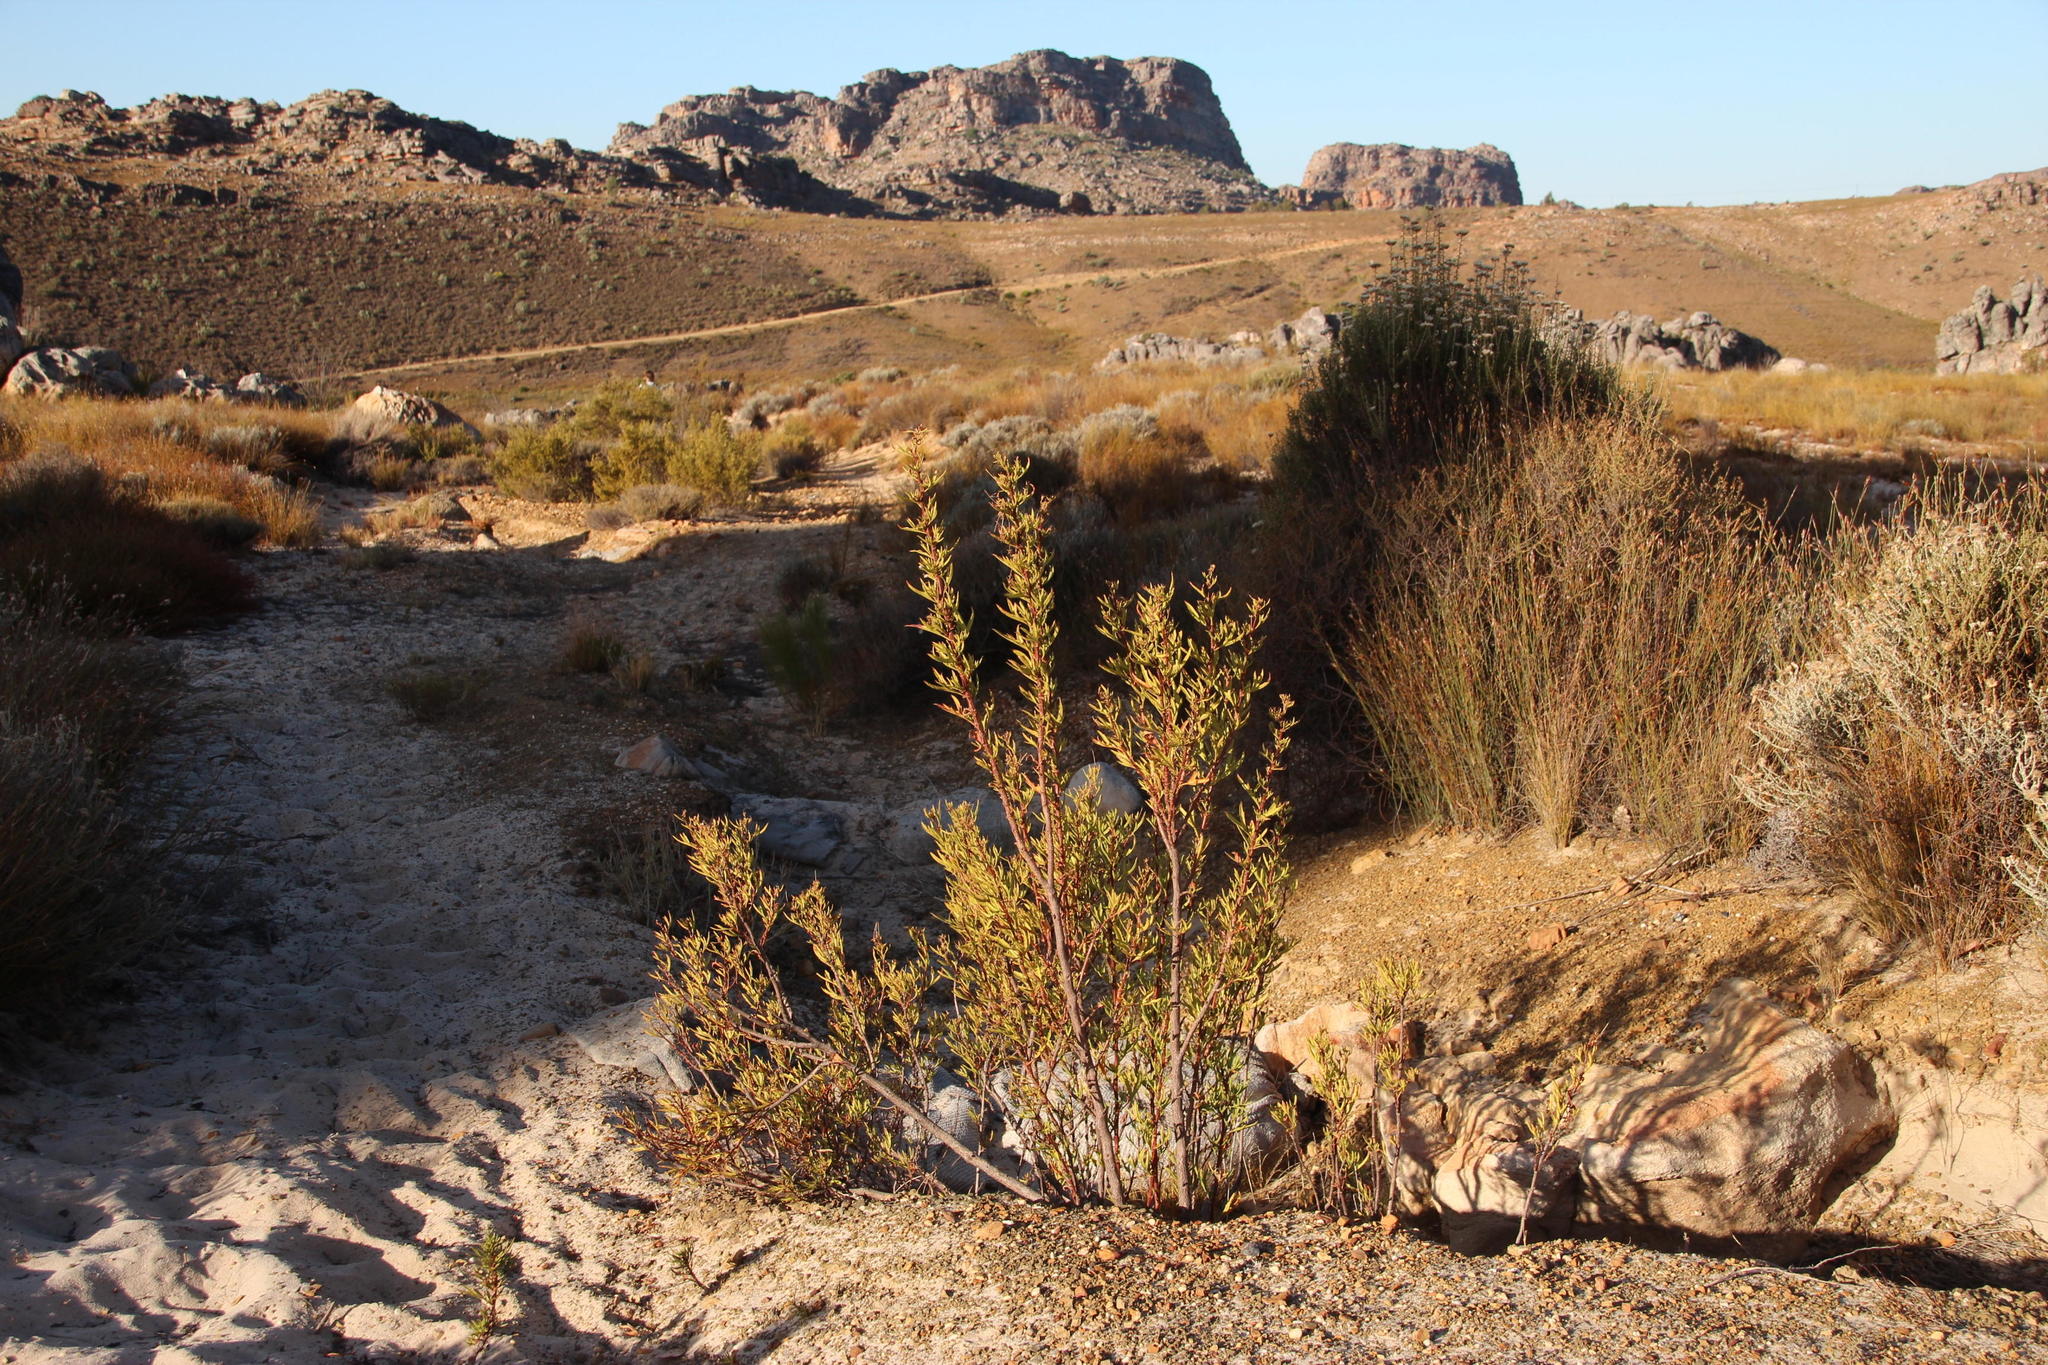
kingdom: Plantae
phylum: Tracheophyta
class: Magnoliopsida
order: Geraniales
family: Geraniaceae
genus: Pelargonium
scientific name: Pelargonium scabrum
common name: Apricot geranium
